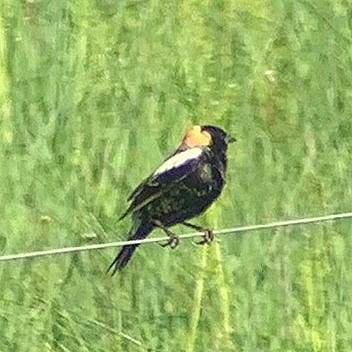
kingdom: Animalia
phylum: Chordata
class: Aves
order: Passeriformes
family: Icteridae
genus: Dolichonyx
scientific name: Dolichonyx oryzivorus
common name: Bobolink
